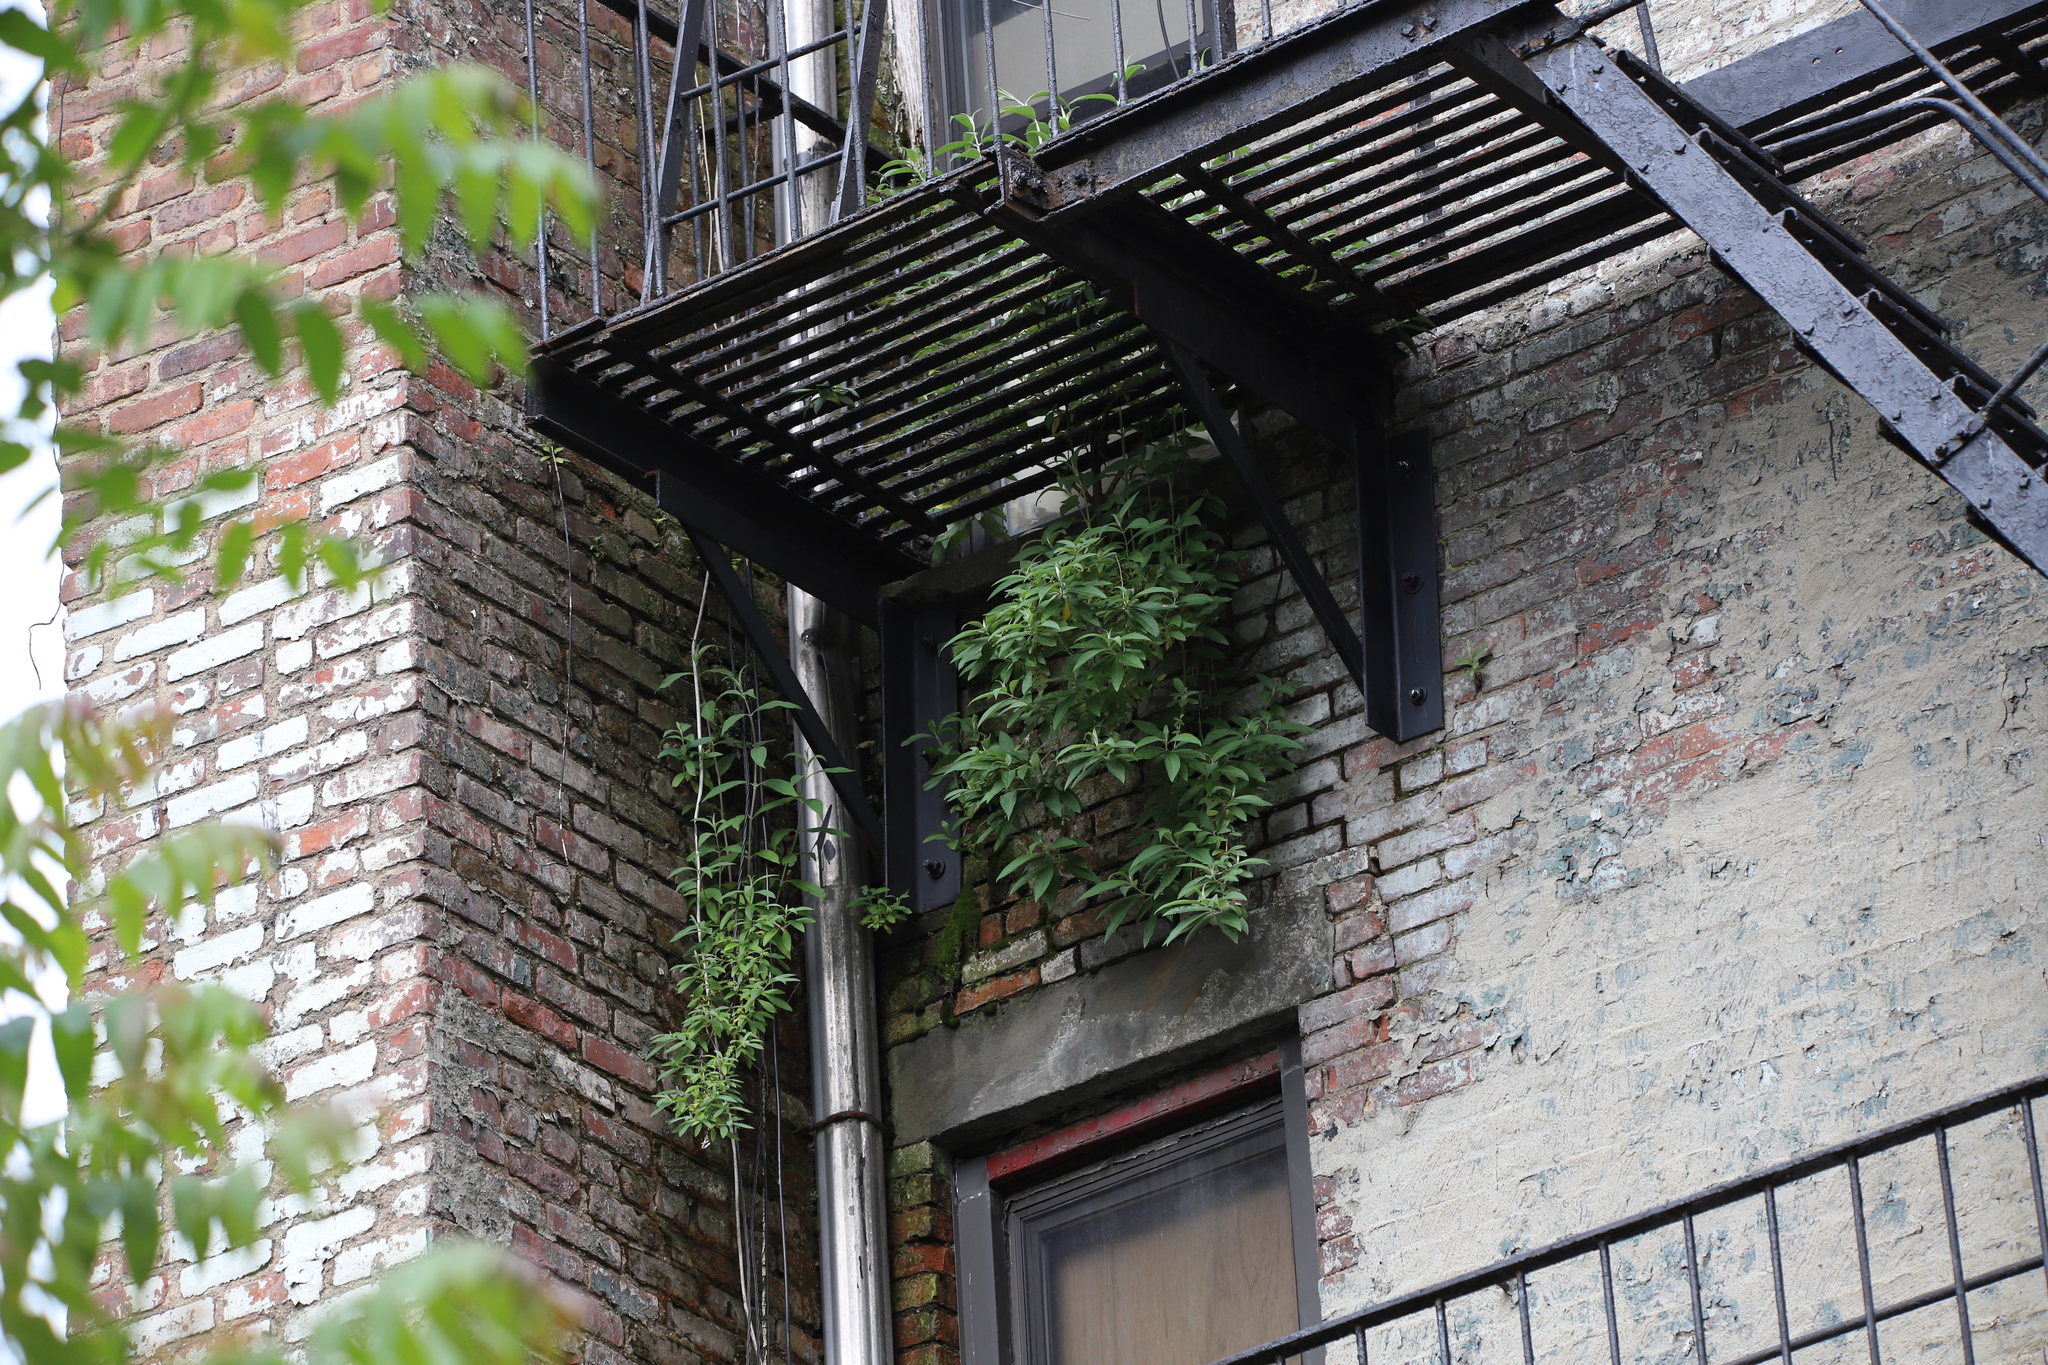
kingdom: Plantae
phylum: Tracheophyta
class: Magnoliopsida
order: Lamiales
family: Scrophulariaceae
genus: Buddleja
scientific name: Buddleja davidii
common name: Butterfly-bush
